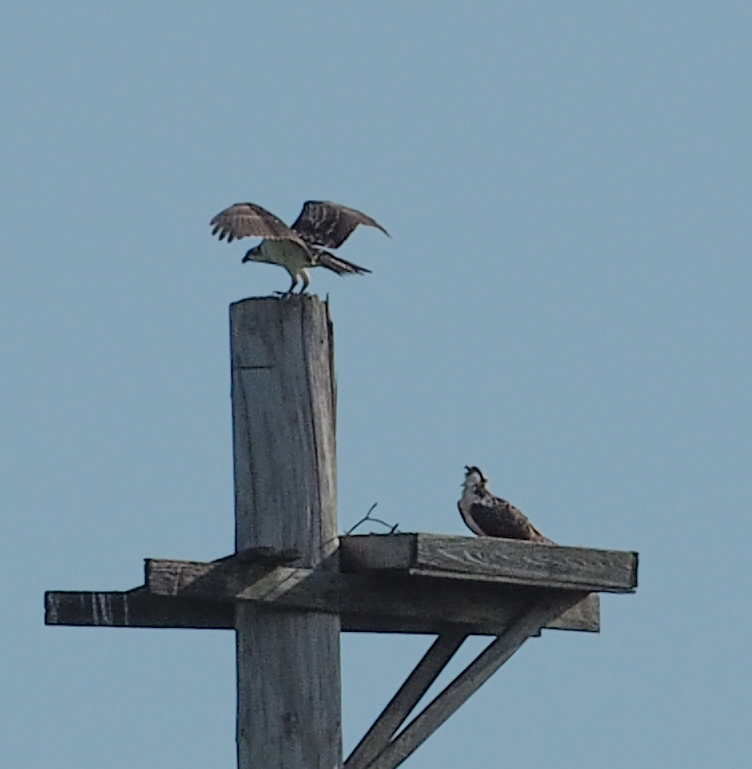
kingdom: Animalia
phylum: Chordata
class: Aves
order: Accipitriformes
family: Pandionidae
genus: Pandion
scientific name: Pandion haliaetus
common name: Osprey
